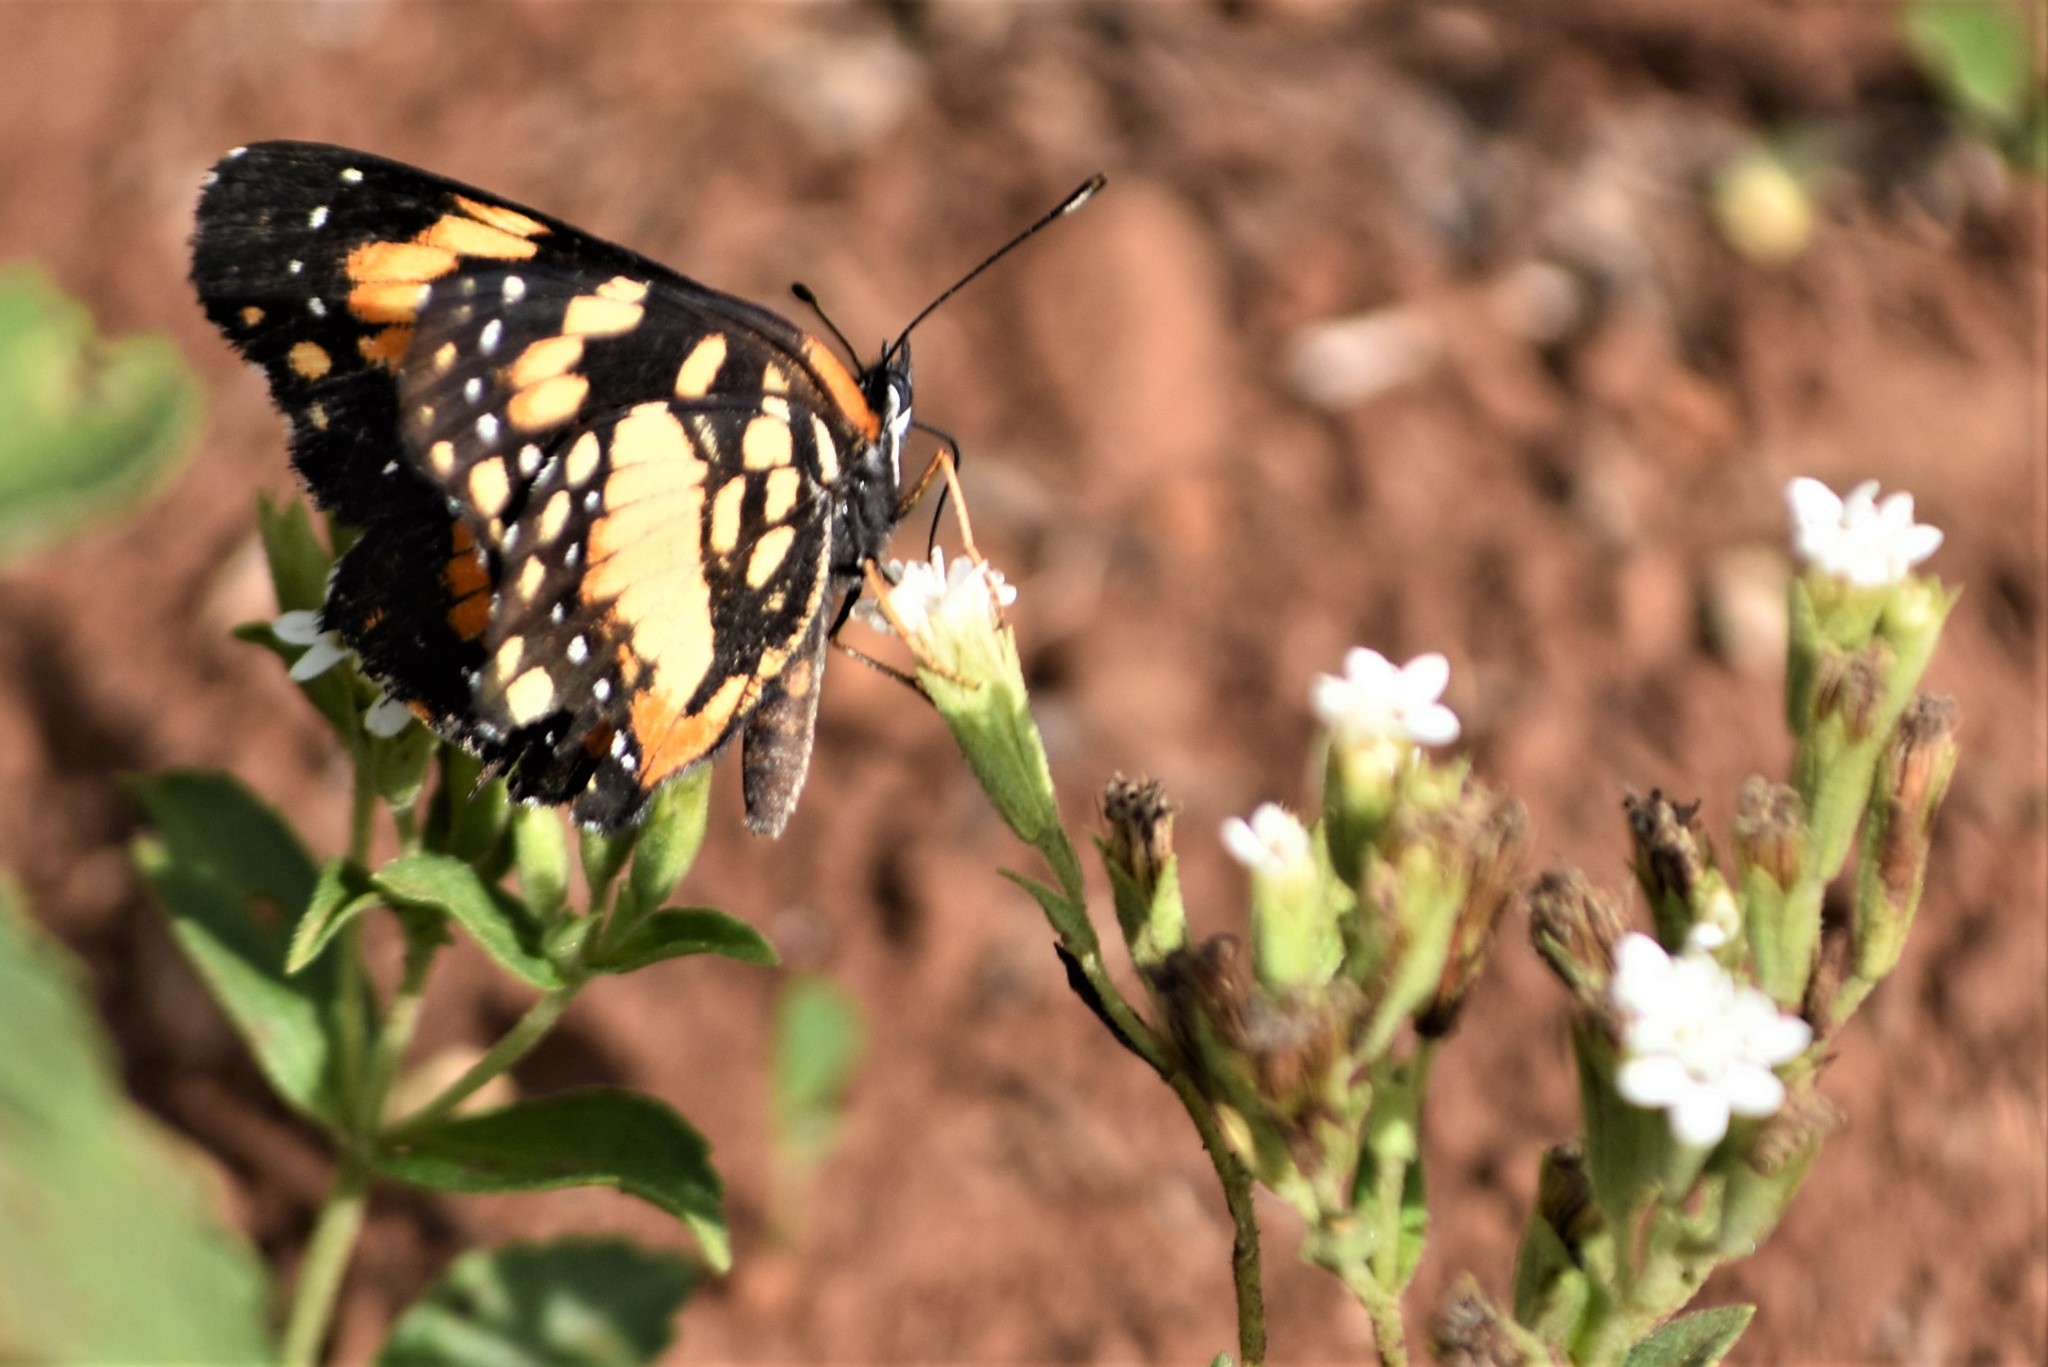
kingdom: Animalia
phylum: Arthropoda
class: Insecta
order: Lepidoptera
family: Nymphalidae
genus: Chlosyne
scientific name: Chlosyne lacinia
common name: Bordered patch
